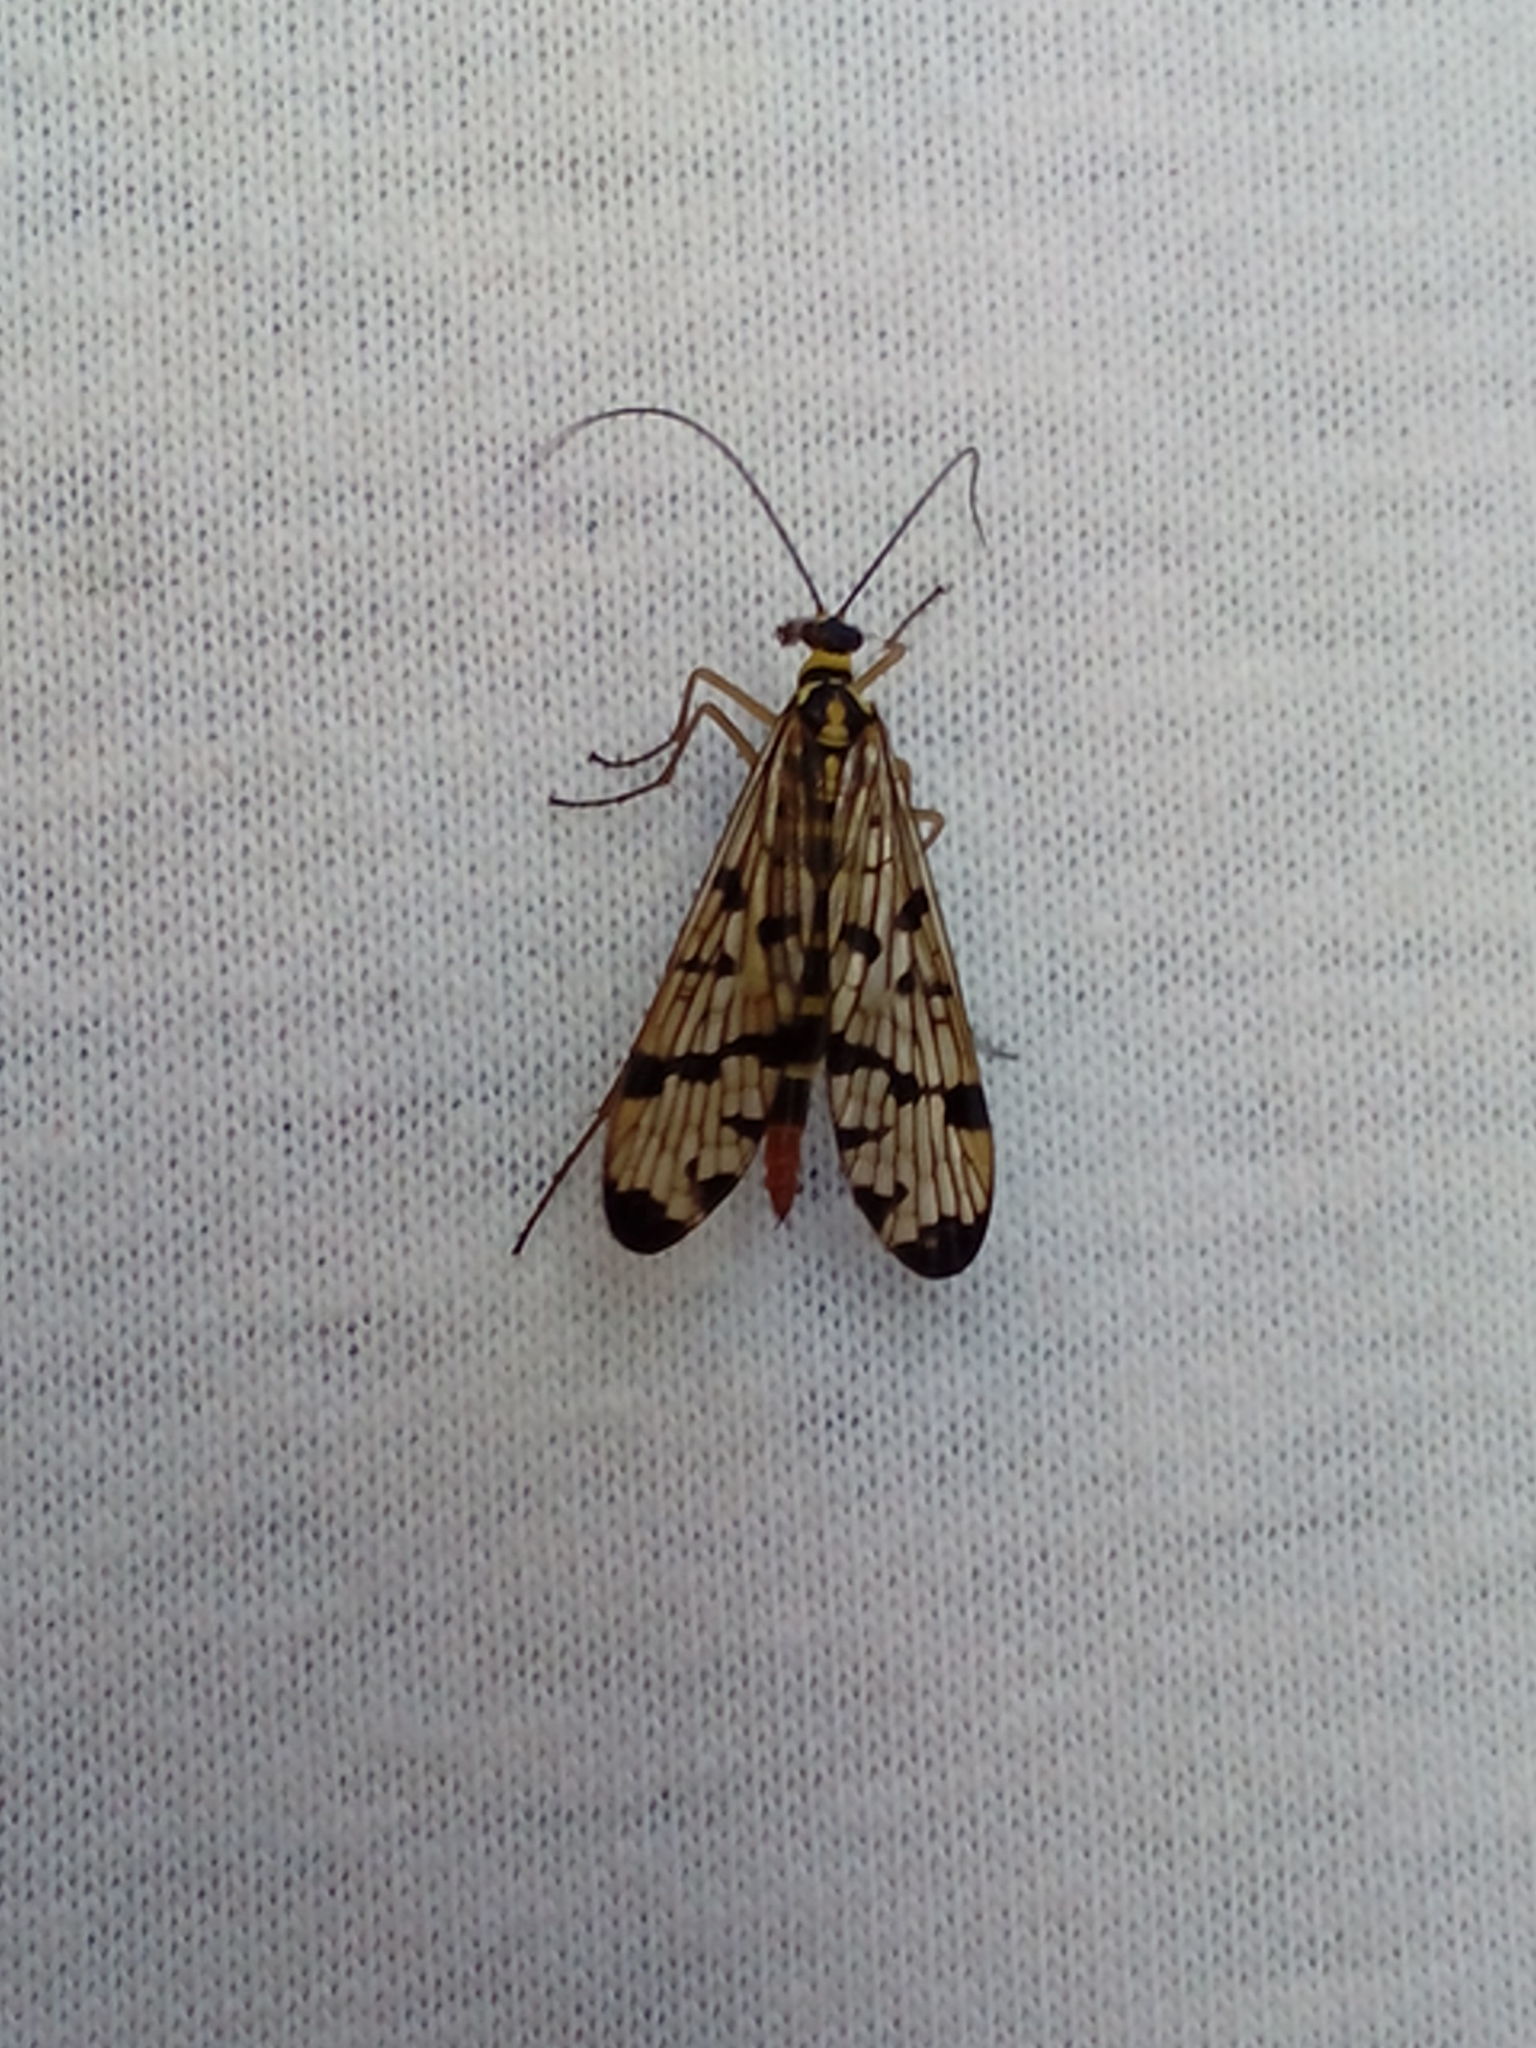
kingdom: Animalia
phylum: Arthropoda
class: Insecta
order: Mecoptera
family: Panorpidae
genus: Panorpa
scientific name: Panorpa germanica
